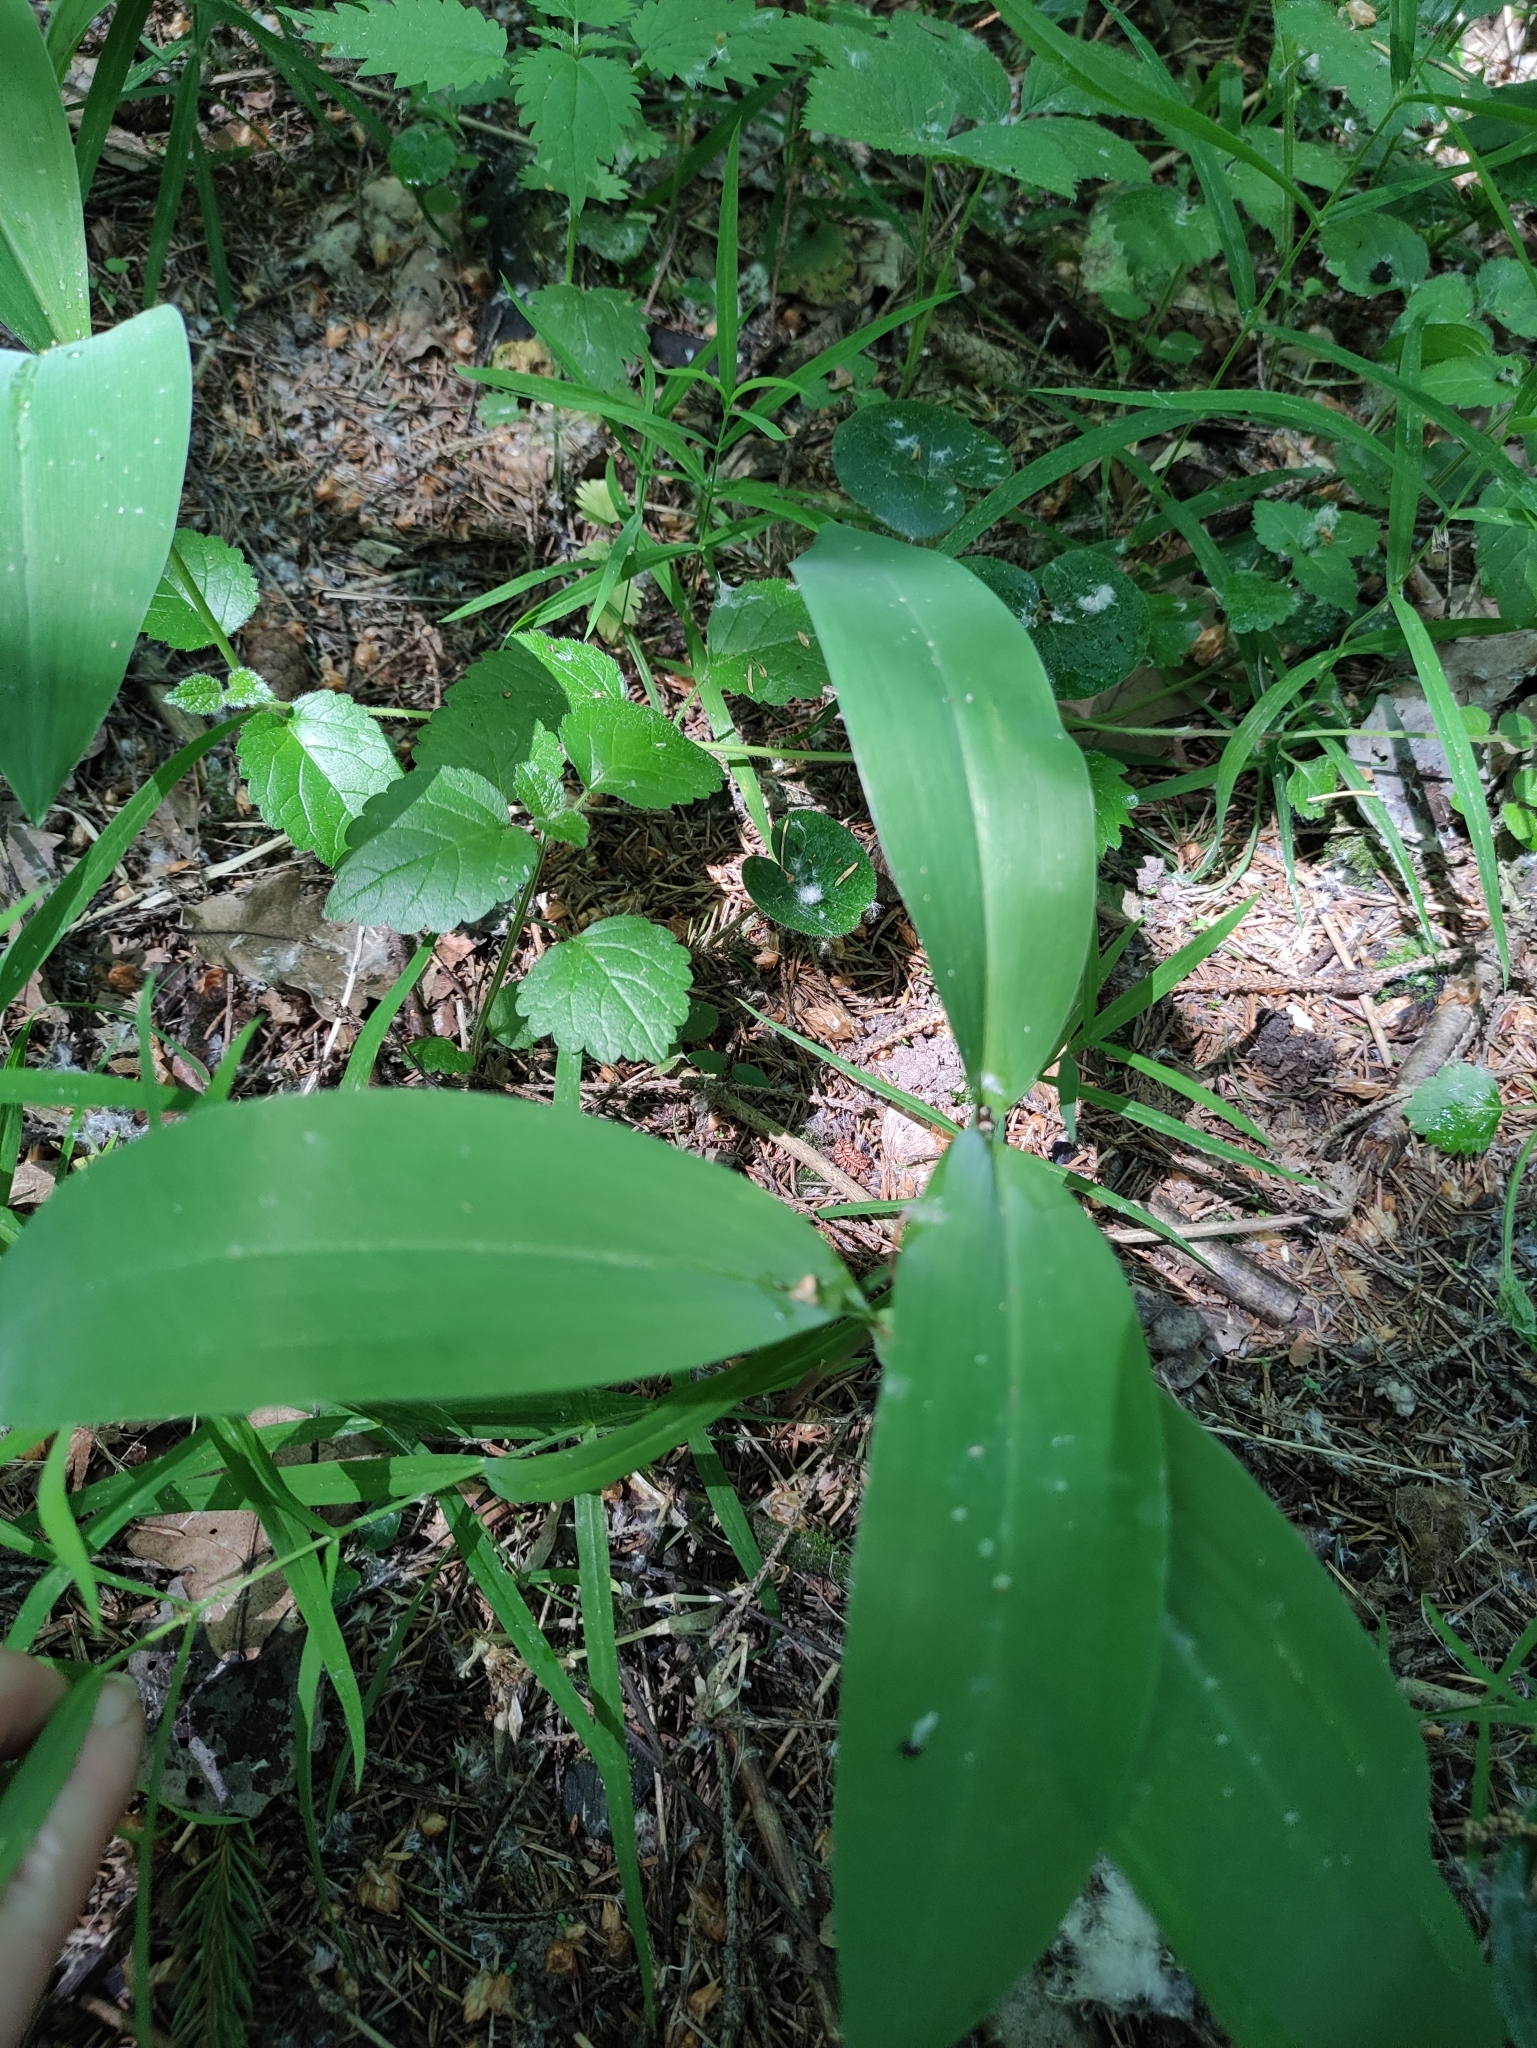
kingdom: Plantae
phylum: Tracheophyta
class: Liliopsida
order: Asparagales
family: Asparagaceae
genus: Convallaria
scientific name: Convallaria majalis
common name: Lily-of-the-valley
